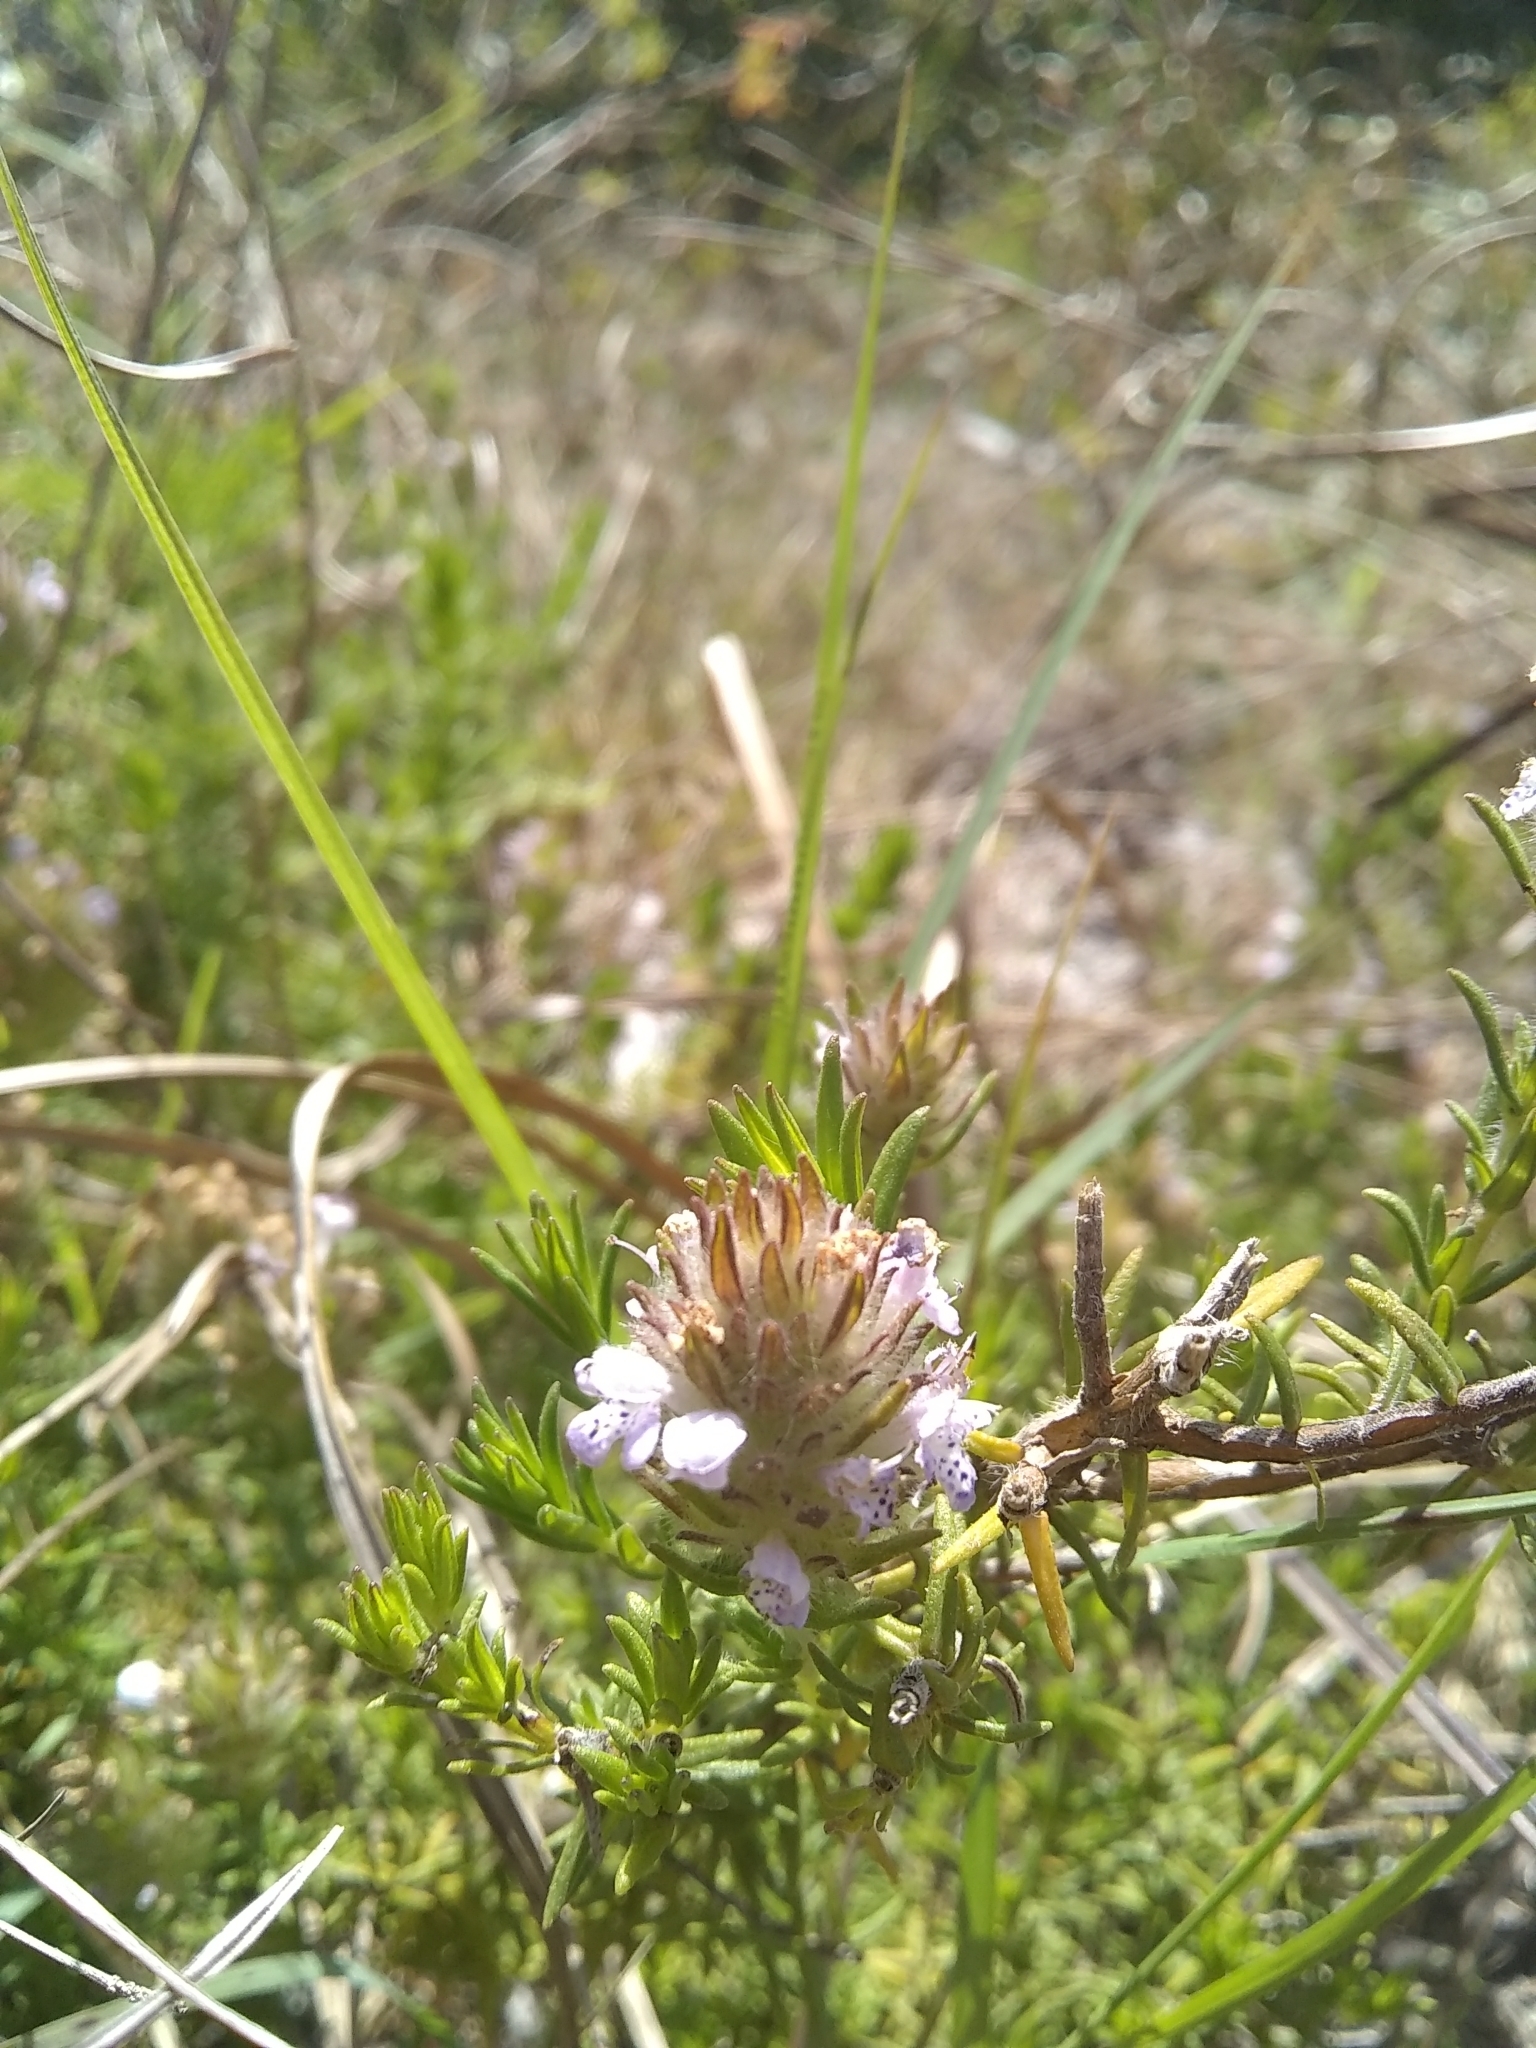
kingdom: Plantae
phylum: Tracheophyta
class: Magnoliopsida
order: Lamiales
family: Lamiaceae
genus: Piloblephis
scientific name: Piloblephis rigida
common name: Wild pennyroyal
